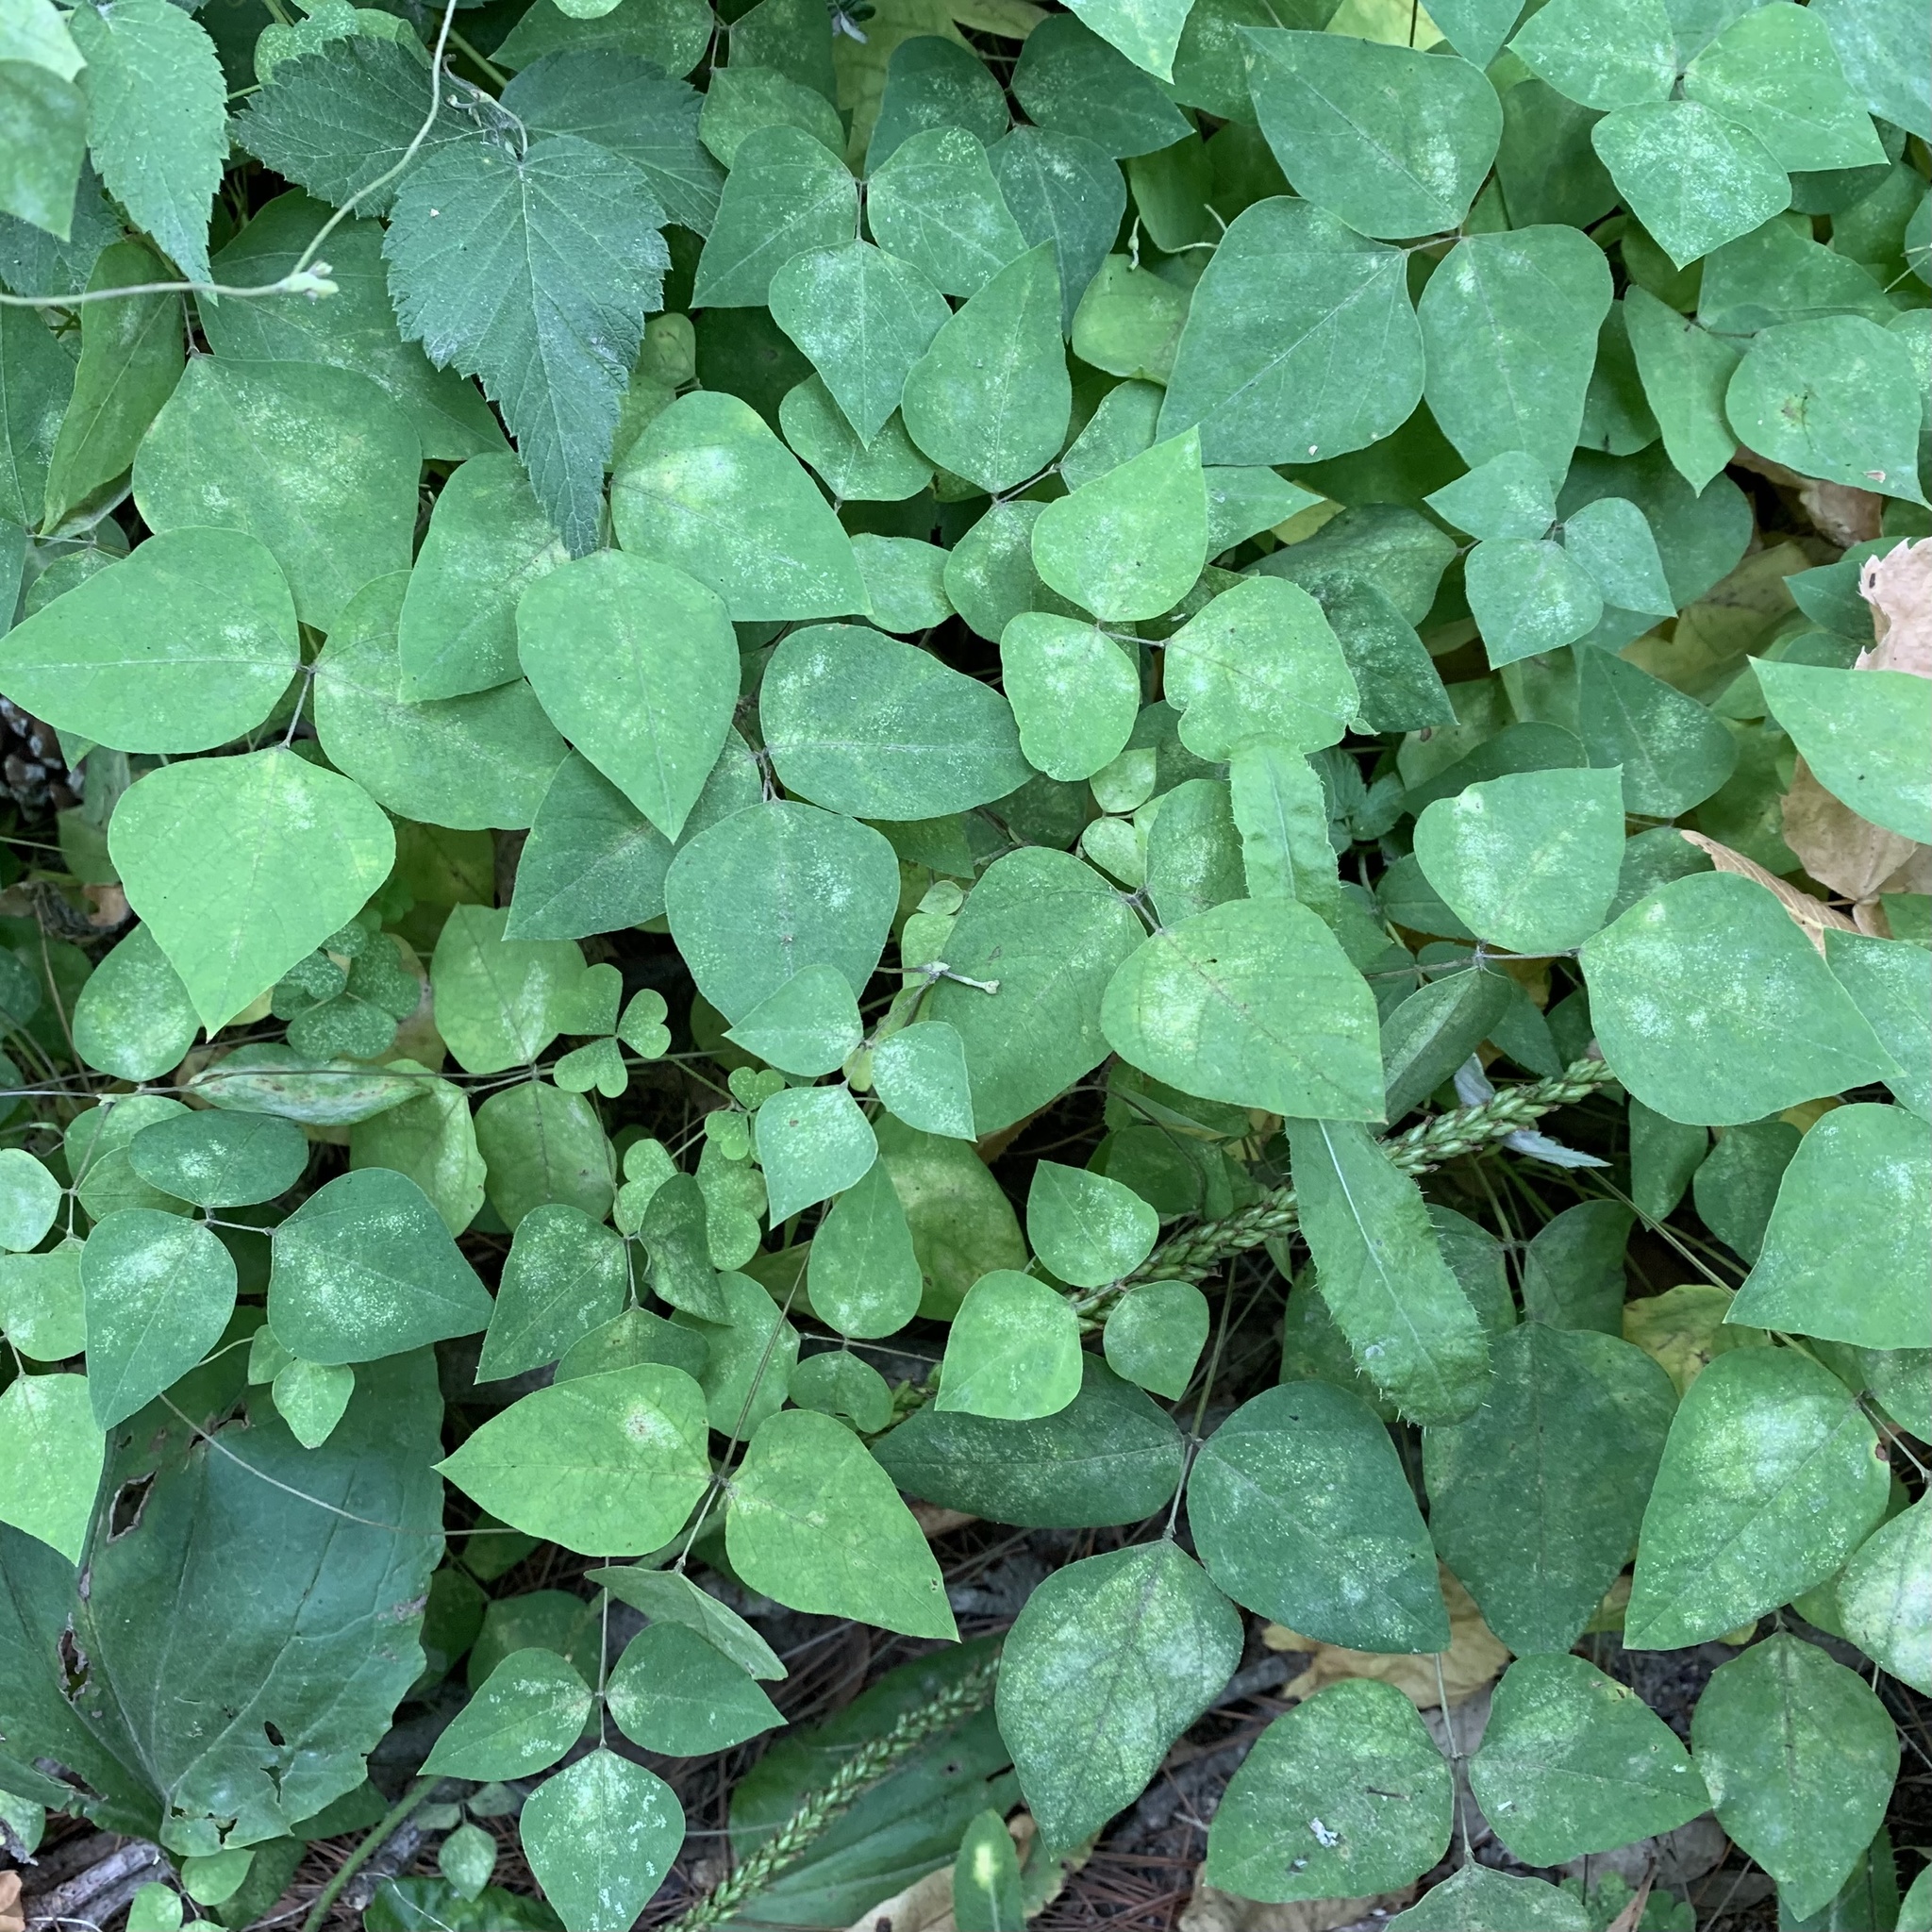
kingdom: Plantae
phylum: Tracheophyta
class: Magnoliopsida
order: Fabales
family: Fabaceae
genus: Amphicarpaea
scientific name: Amphicarpaea bracteata
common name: American hog peanut
